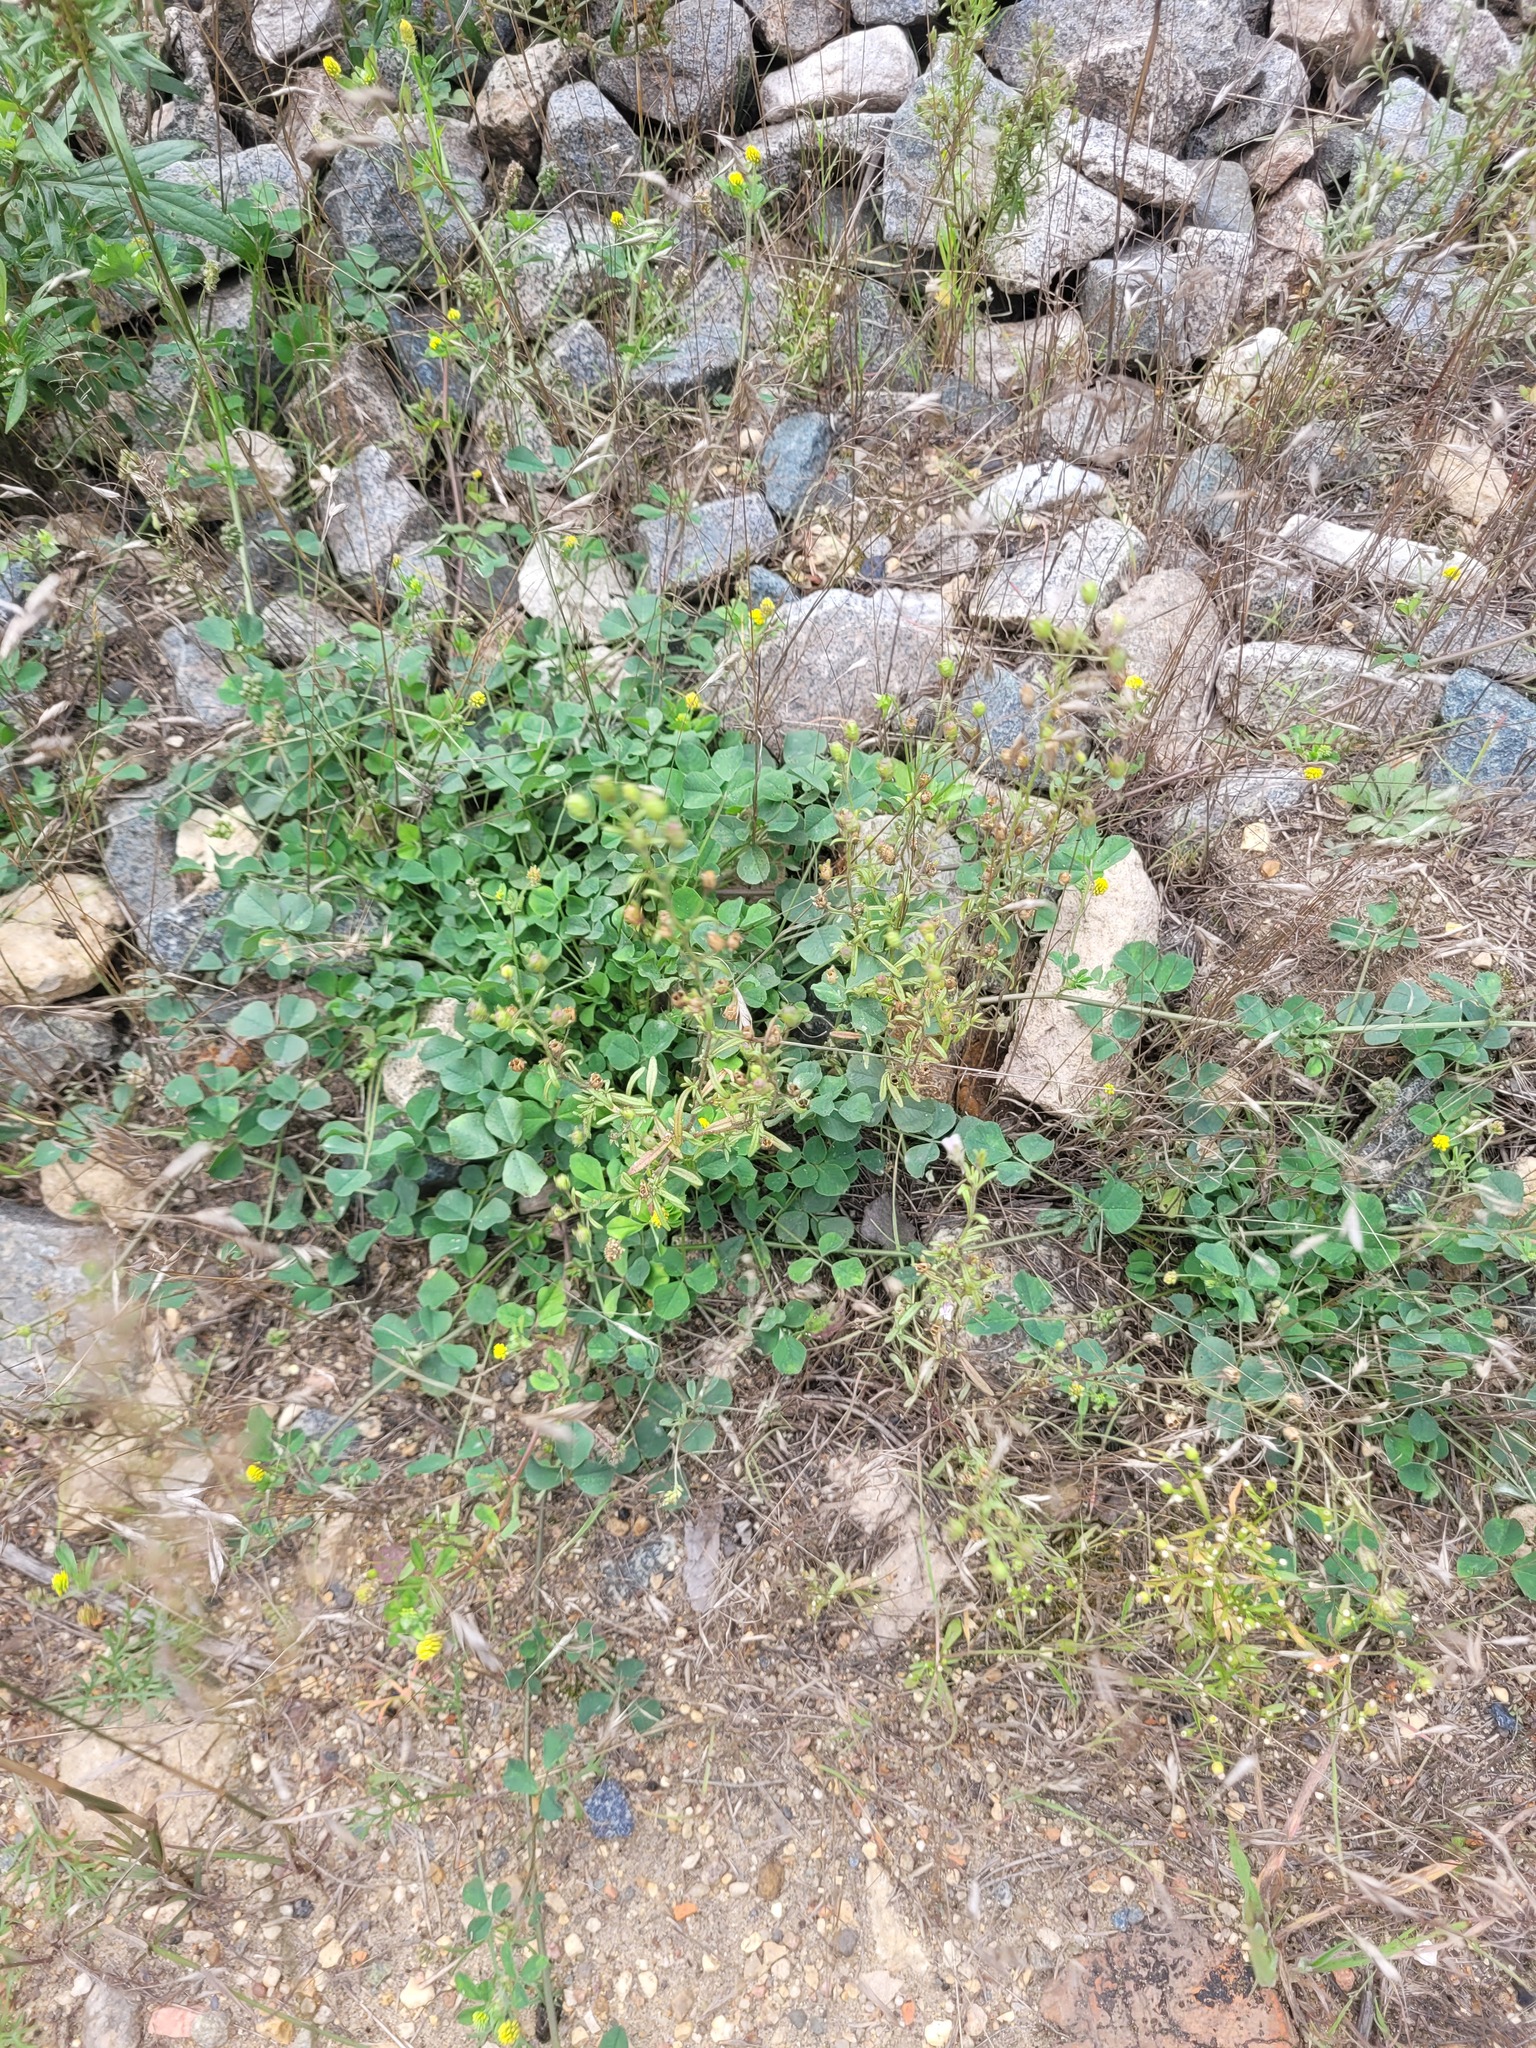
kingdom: Plantae
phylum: Tracheophyta
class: Magnoliopsida
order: Lamiales
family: Plantaginaceae
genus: Chaenorhinum
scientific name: Chaenorhinum minus
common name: Dwarf snapdragon
